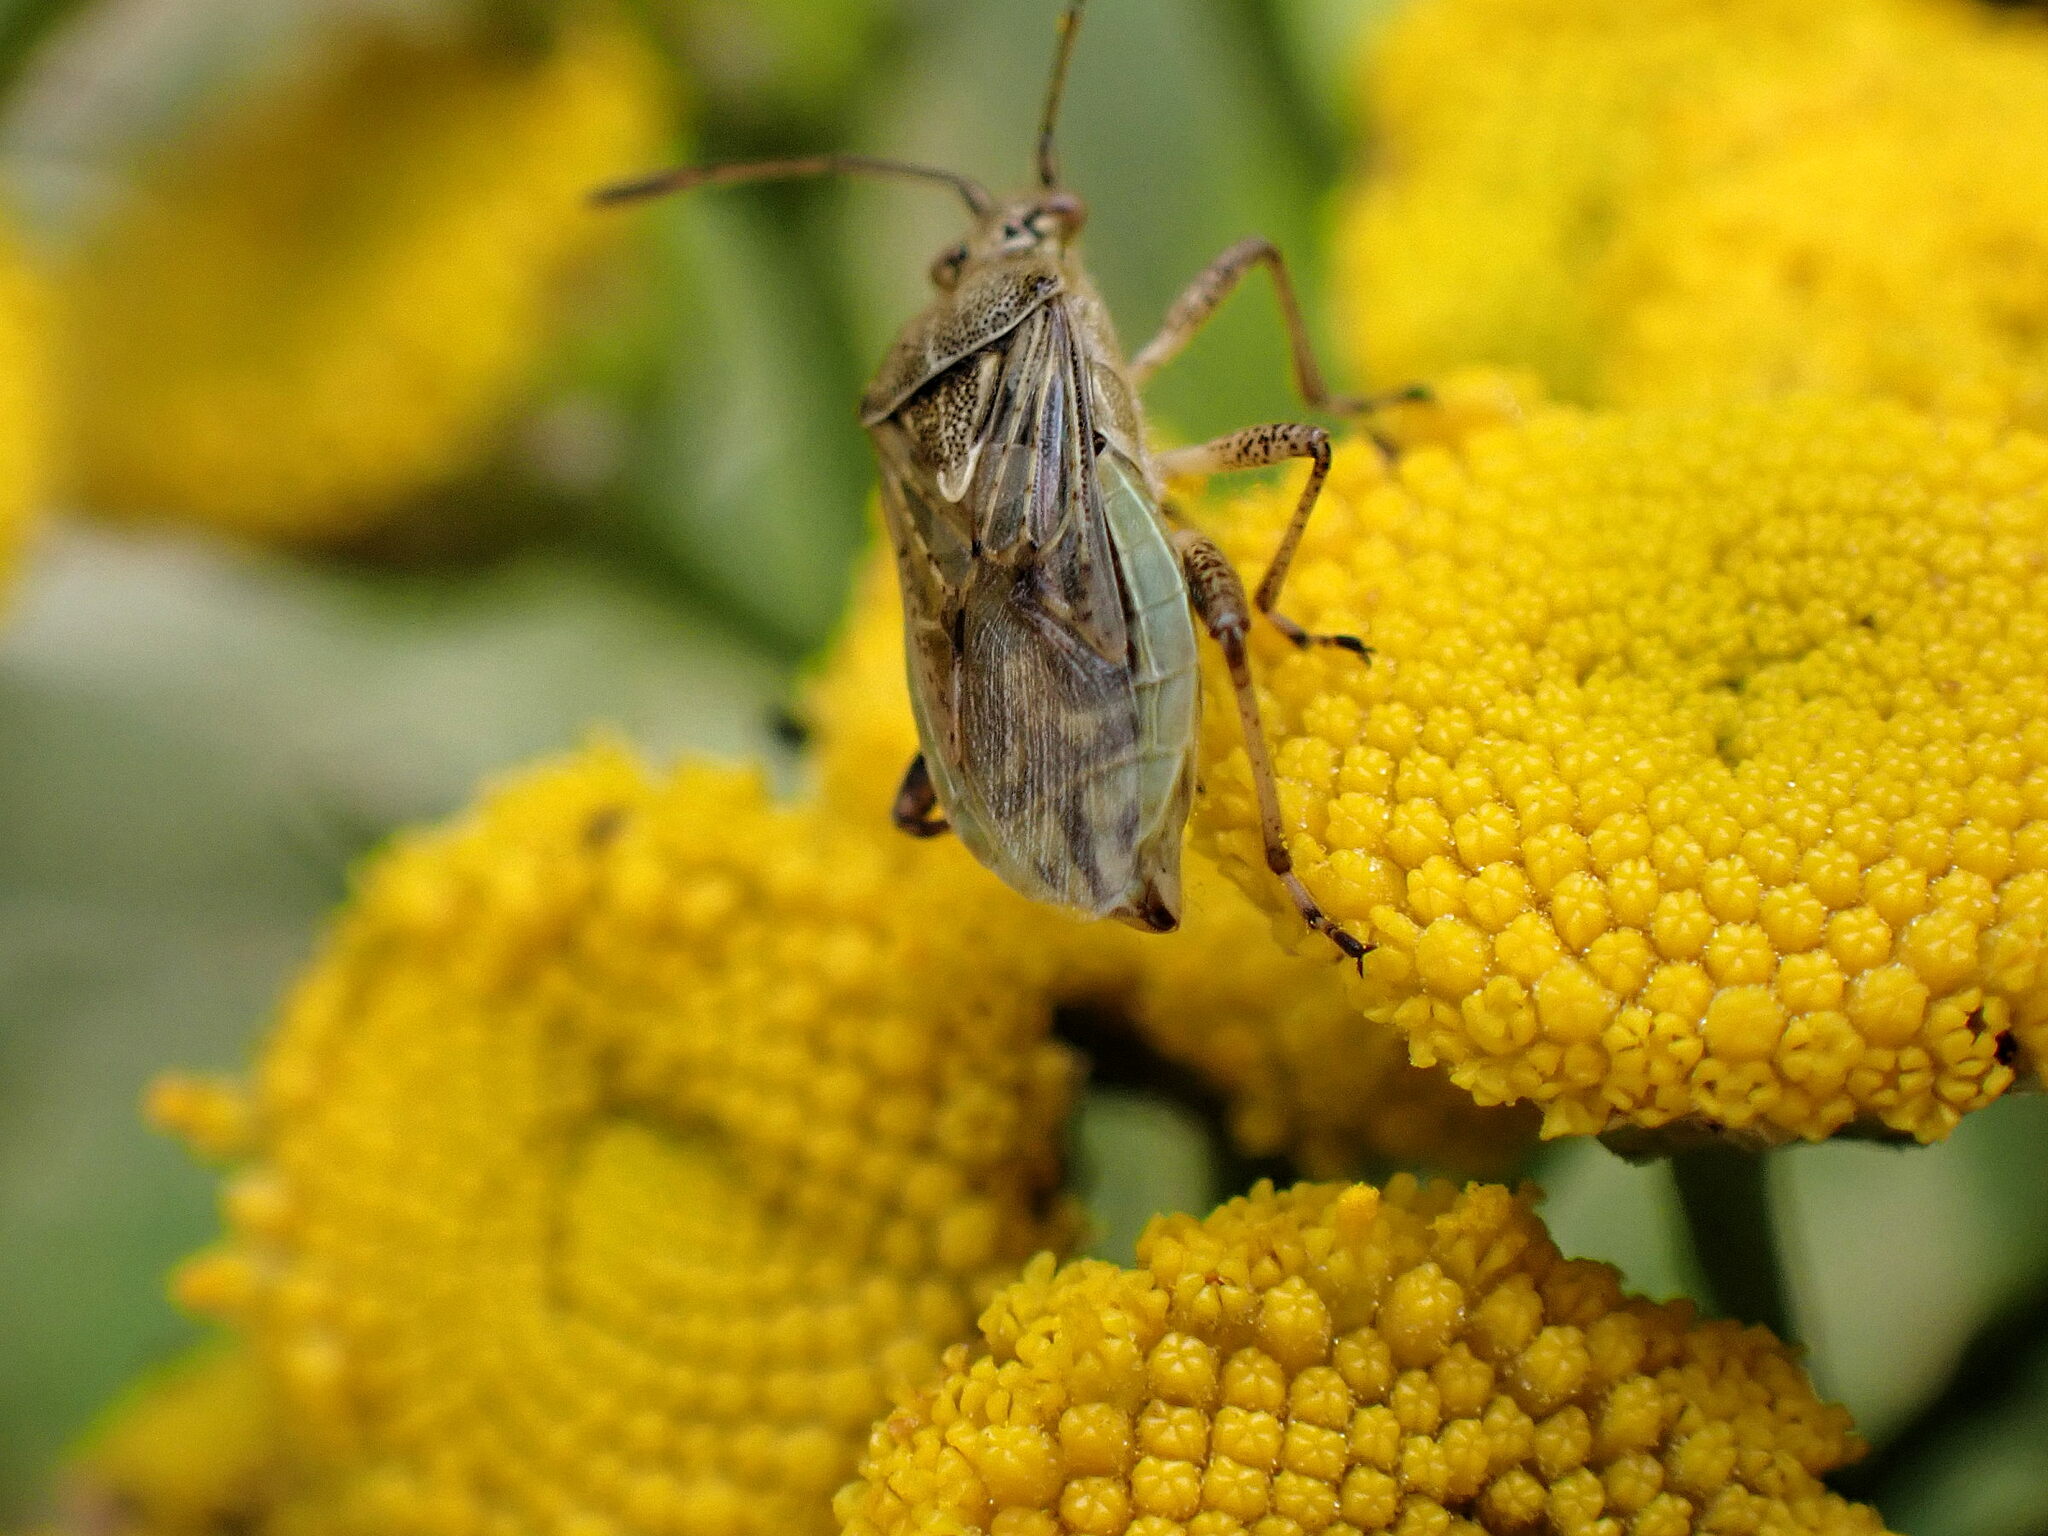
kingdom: Animalia
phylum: Arthropoda
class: Insecta
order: Hemiptera
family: Rhopalidae
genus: Stictopleurus
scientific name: Stictopleurus punctatonervosus
